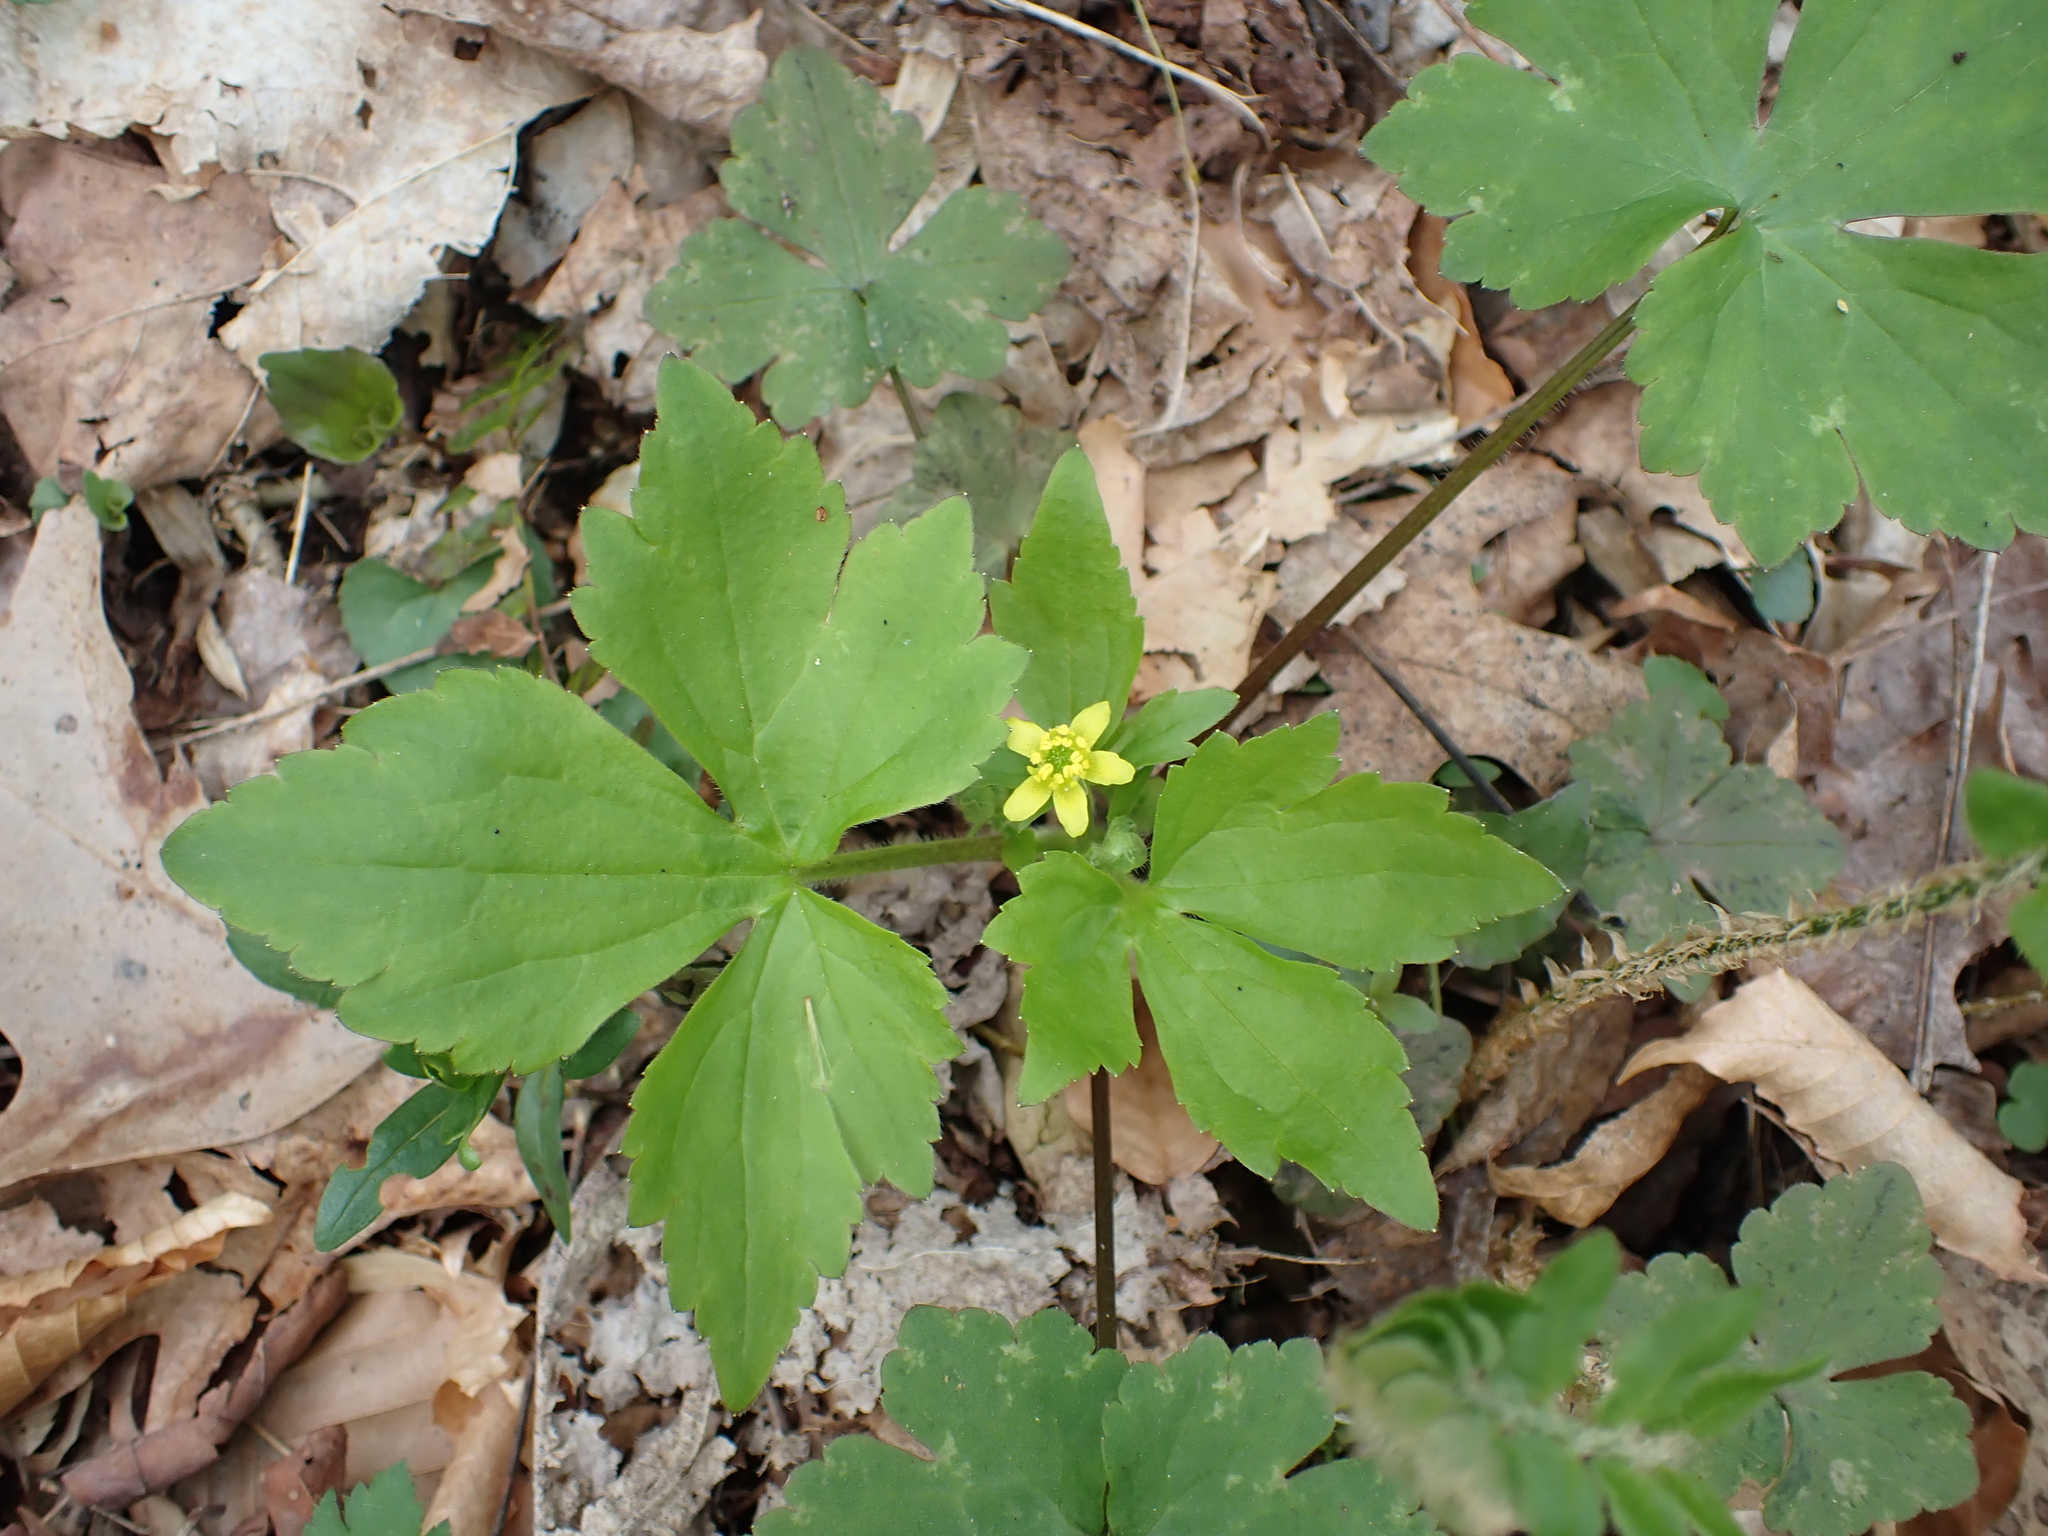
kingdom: Plantae
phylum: Tracheophyta
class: Magnoliopsida
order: Ranunculales
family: Ranunculaceae
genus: Ranunculus
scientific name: Ranunculus recurvatus
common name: Blisterwort
